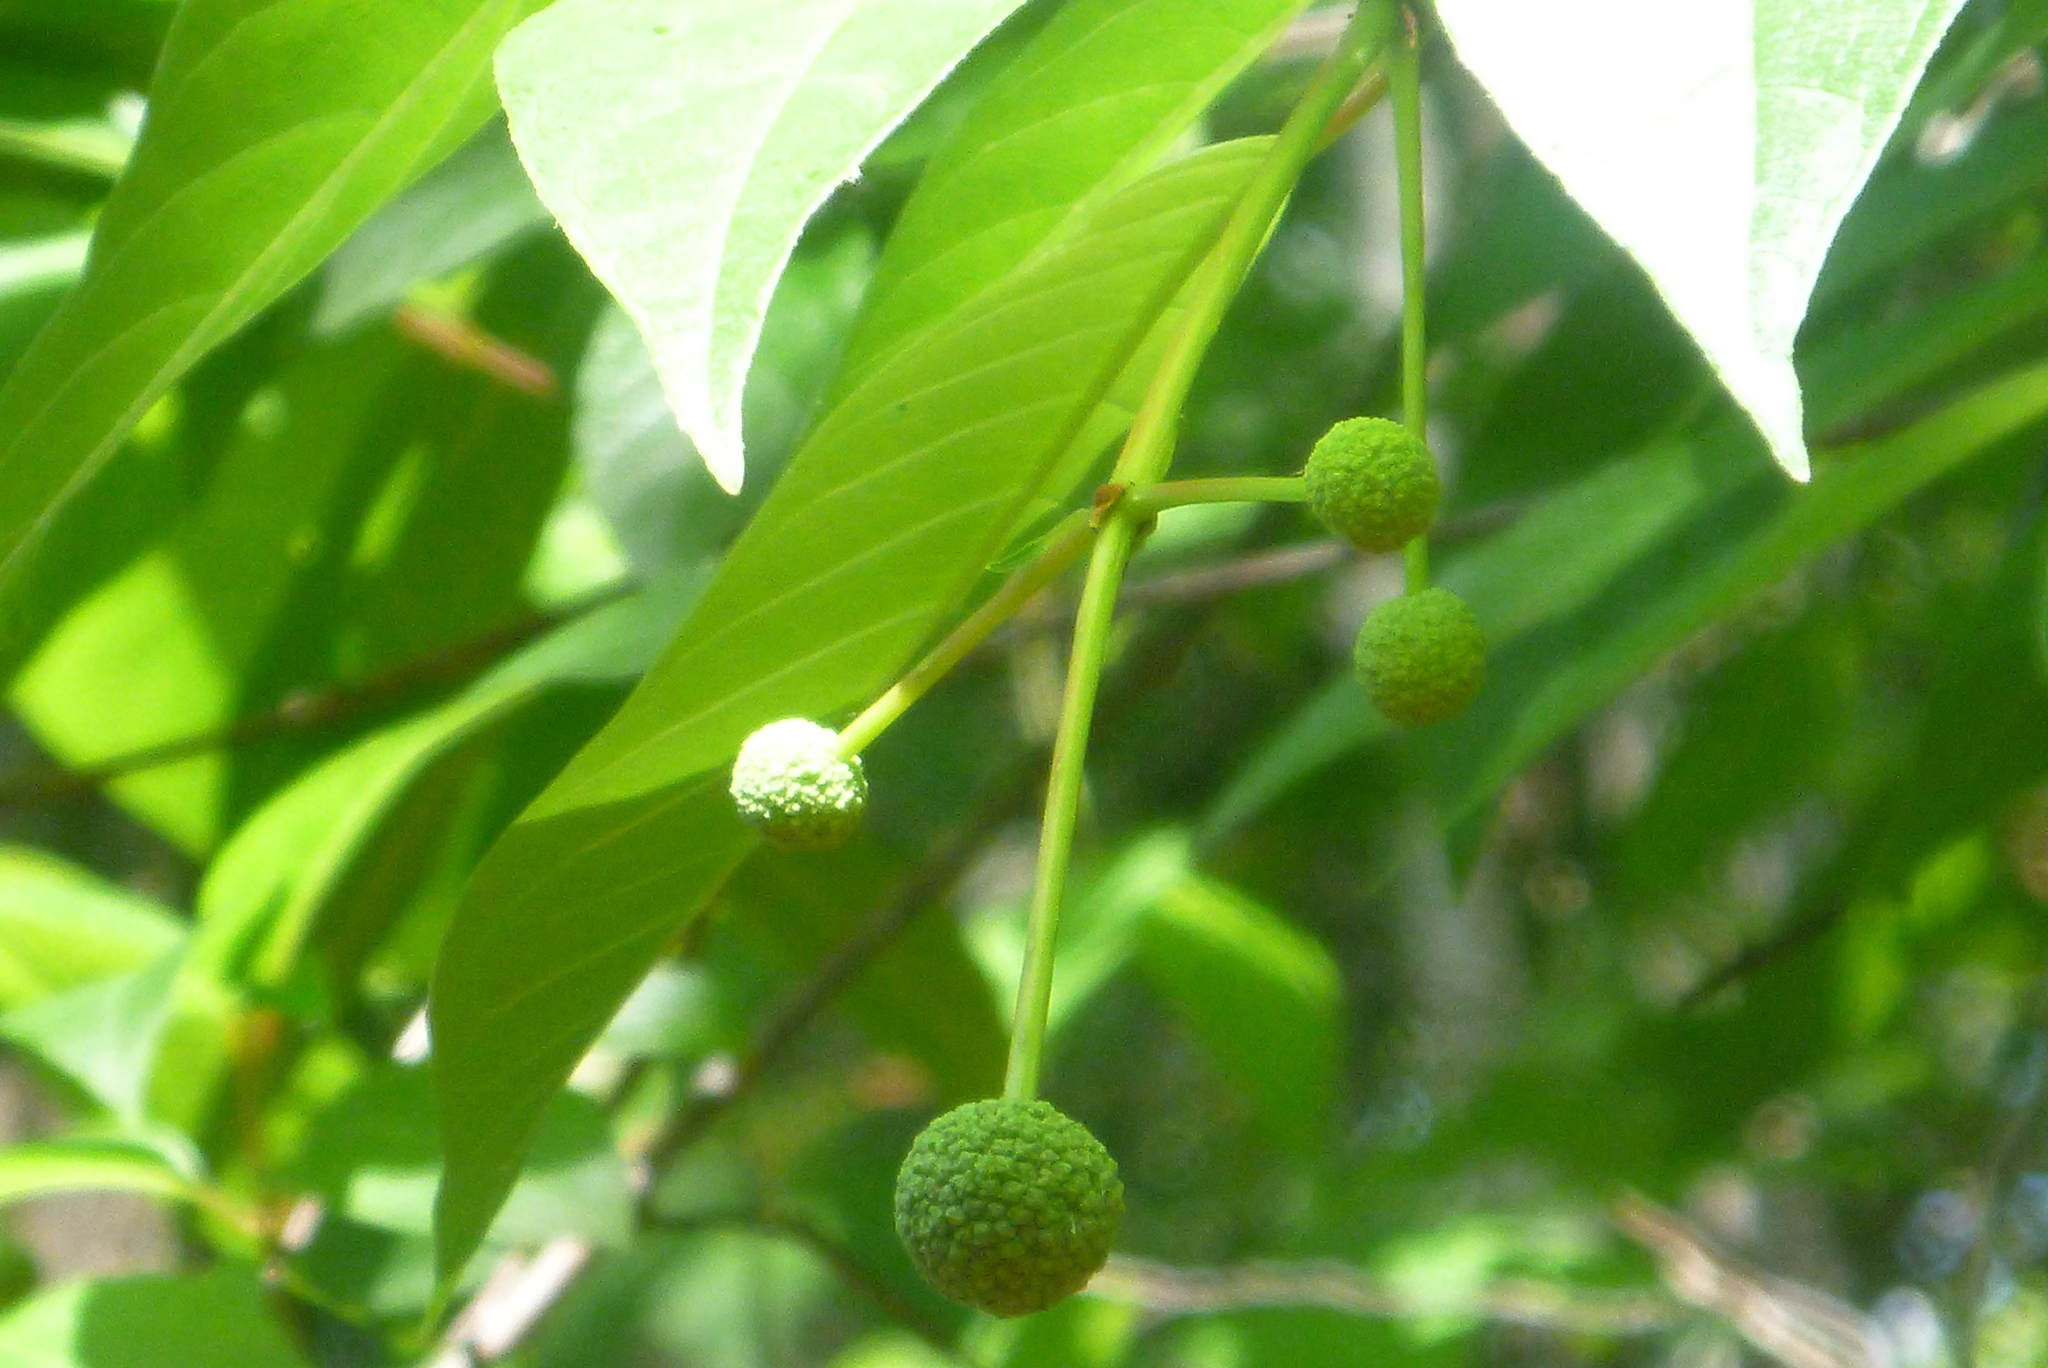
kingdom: Plantae
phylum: Tracheophyta
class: Magnoliopsida
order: Gentianales
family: Rubiaceae
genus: Cephalanthus
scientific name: Cephalanthus occidentalis
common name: Button-willow
